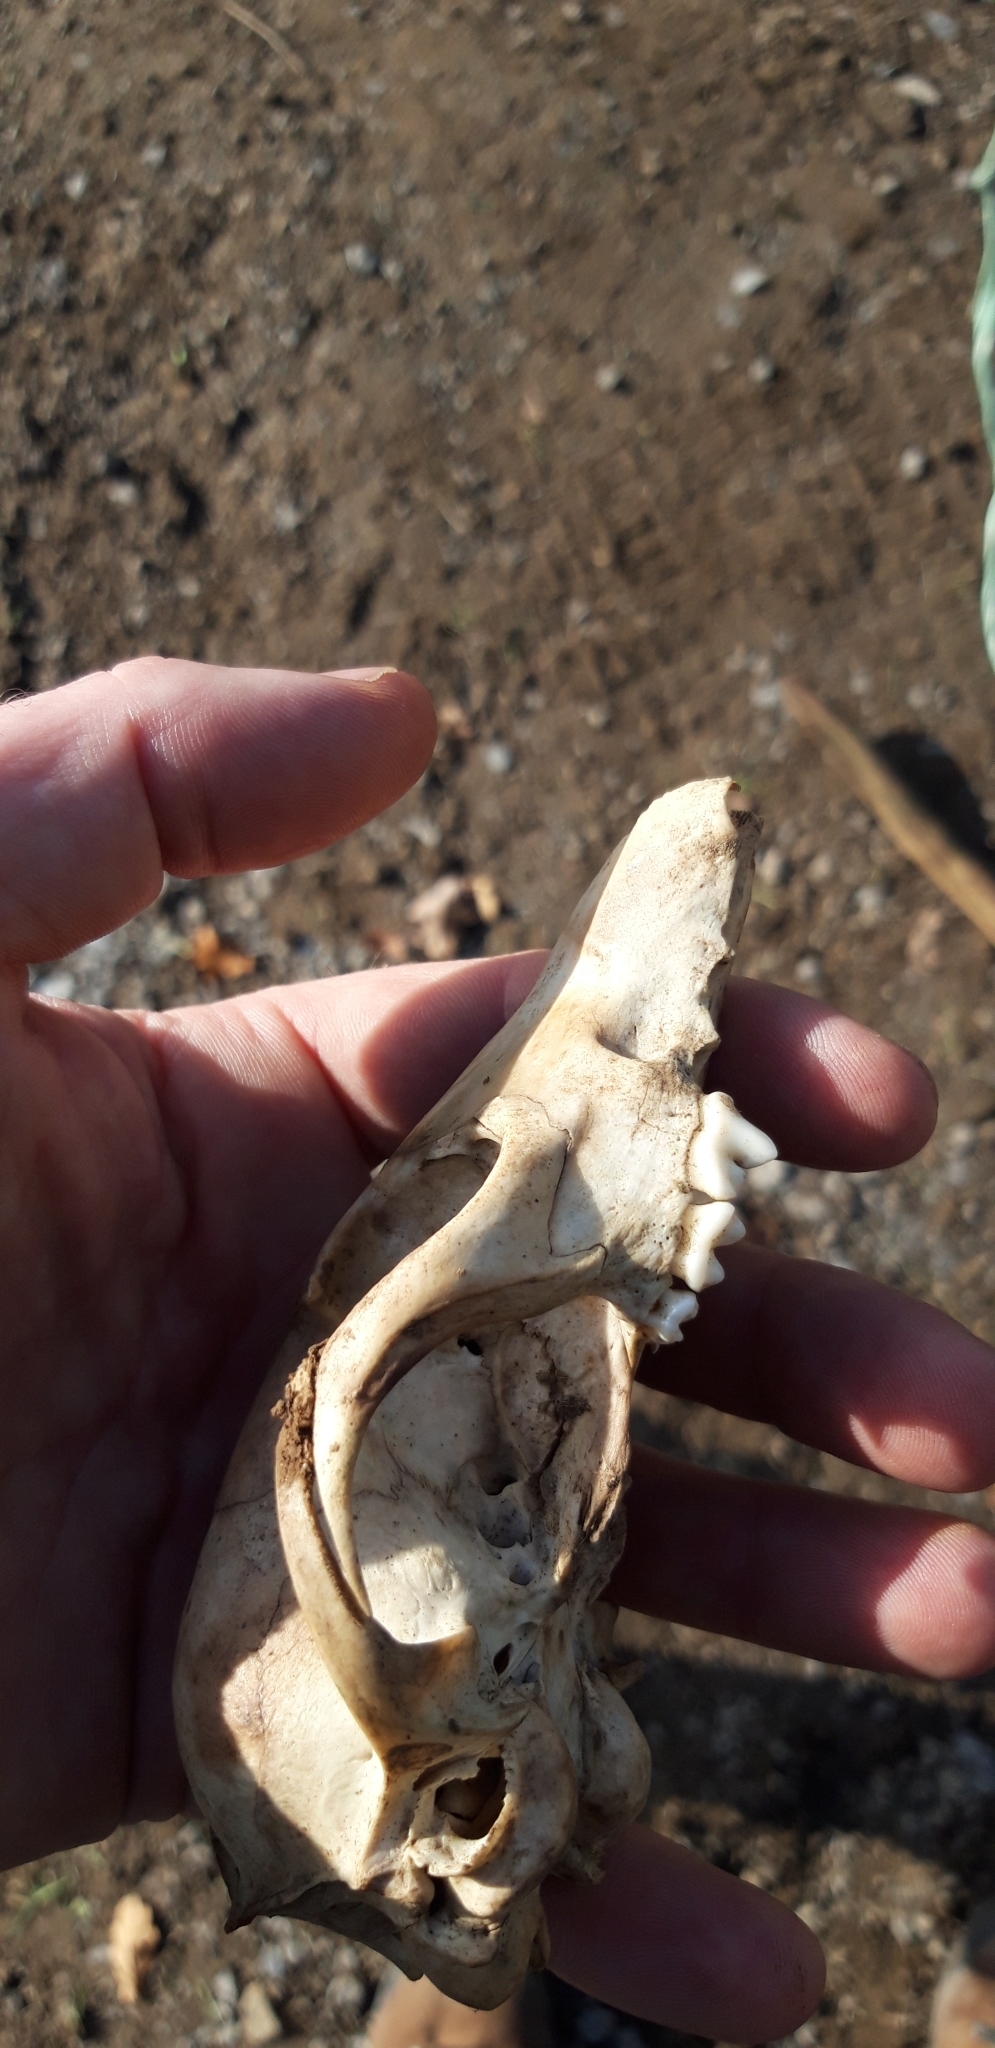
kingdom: Animalia
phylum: Chordata
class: Mammalia
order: Carnivora
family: Canidae
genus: Vulpes
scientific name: Vulpes vulpes
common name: Red fox
